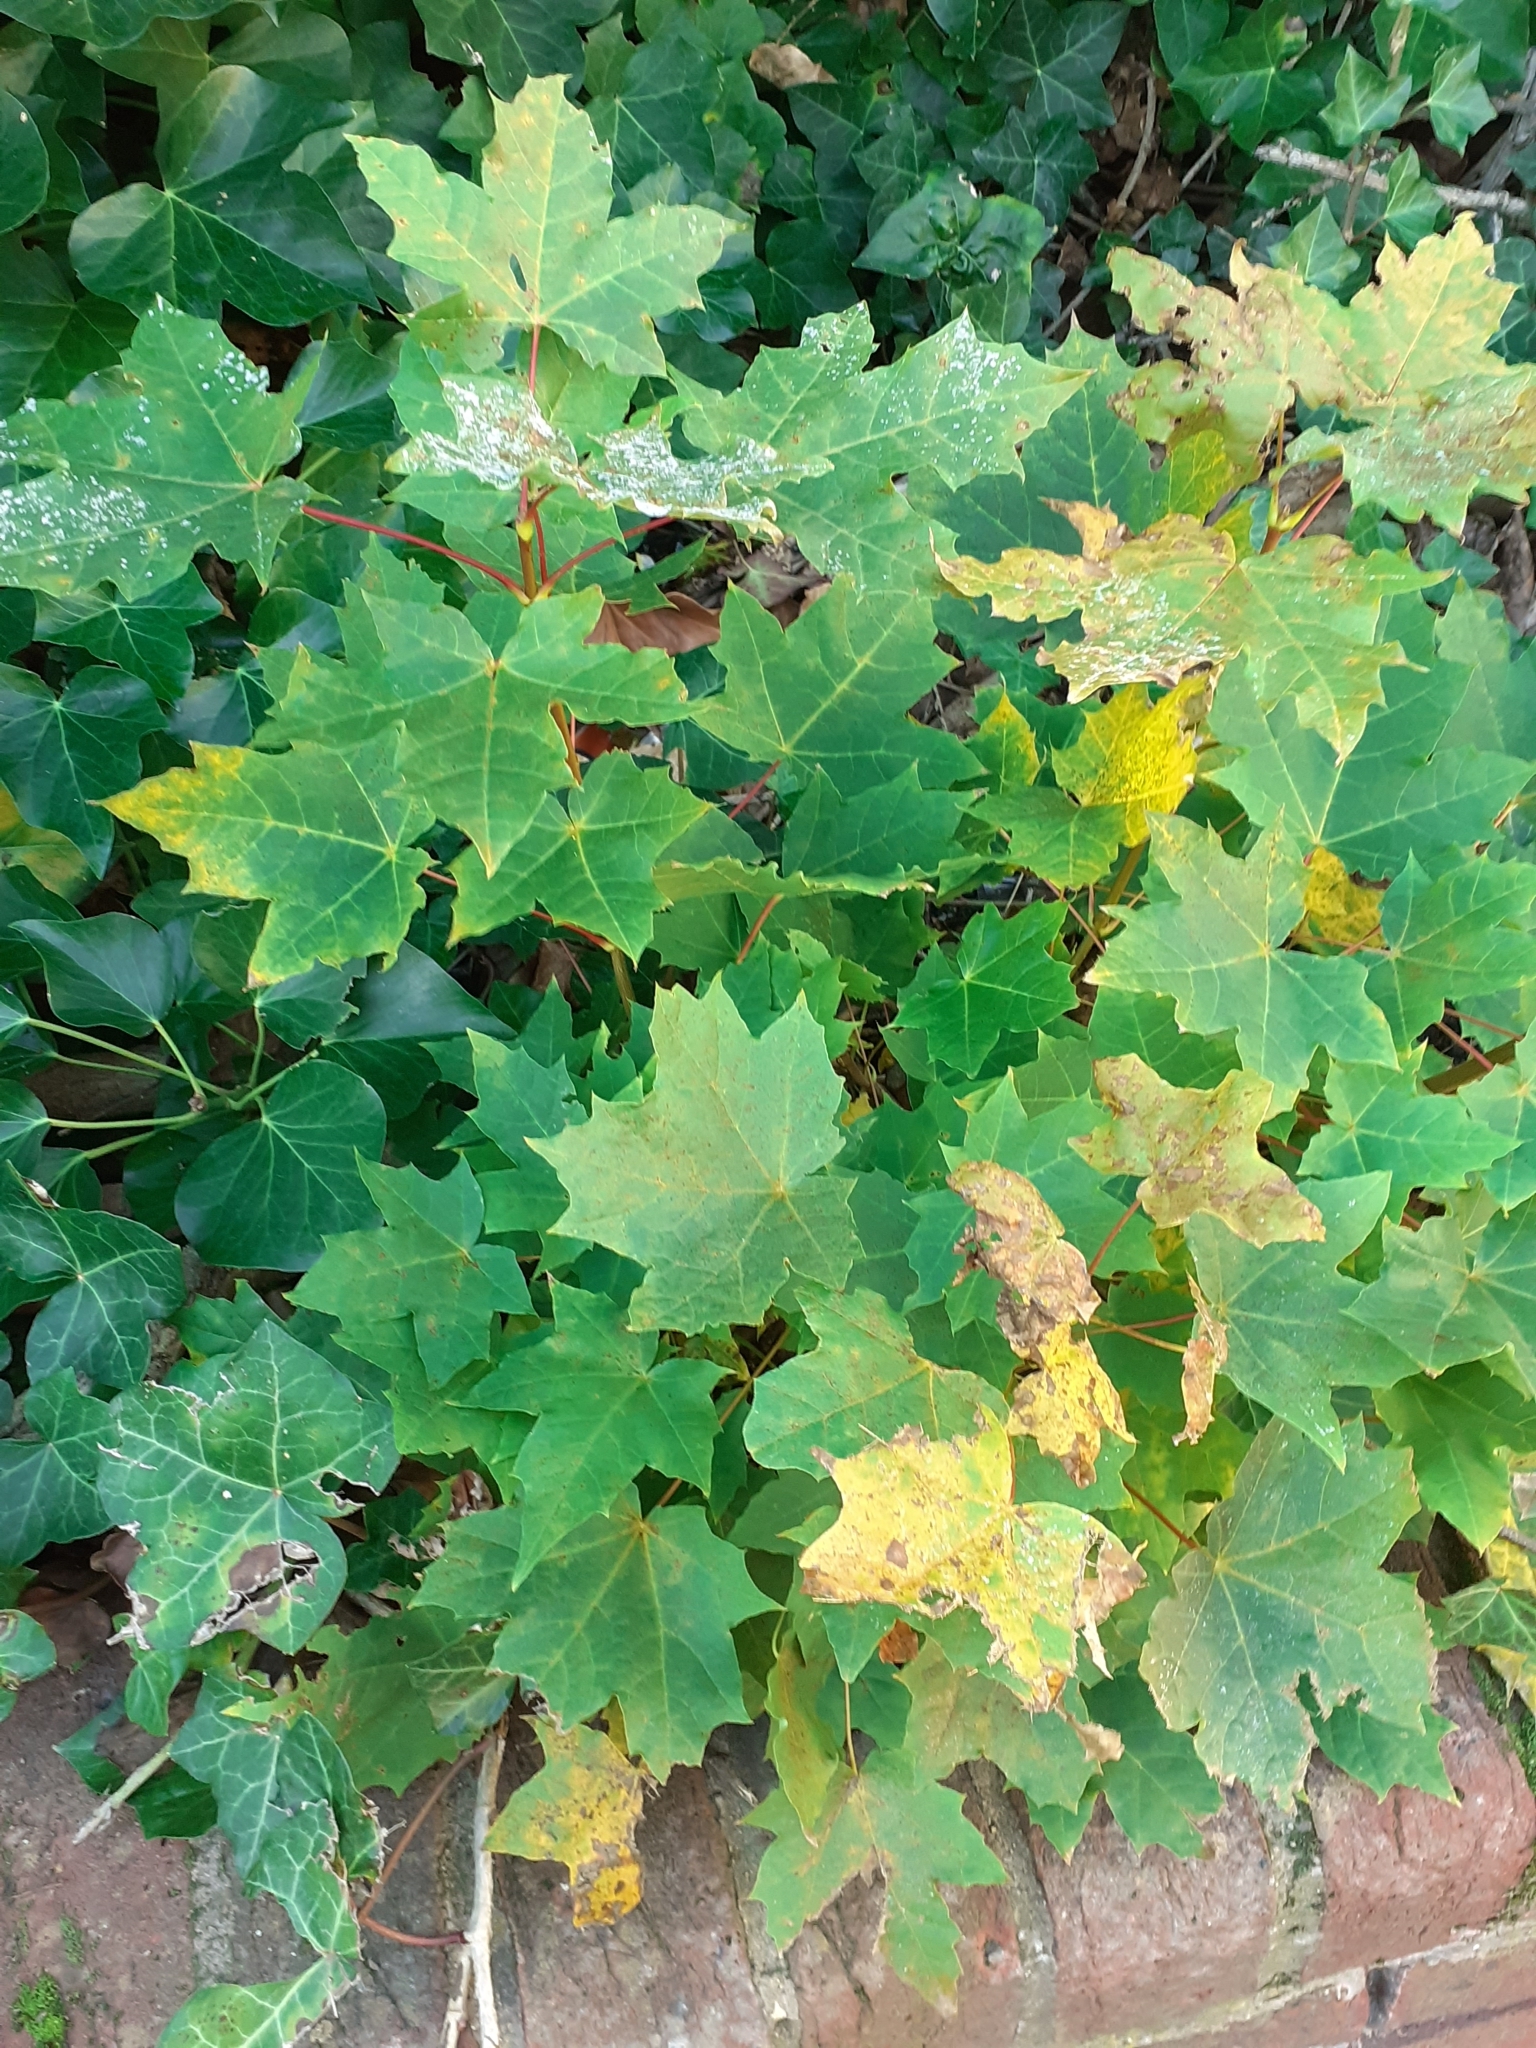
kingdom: Plantae
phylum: Tracheophyta
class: Magnoliopsida
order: Sapindales
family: Sapindaceae
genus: Acer
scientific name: Acer platanoides
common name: Norway maple
